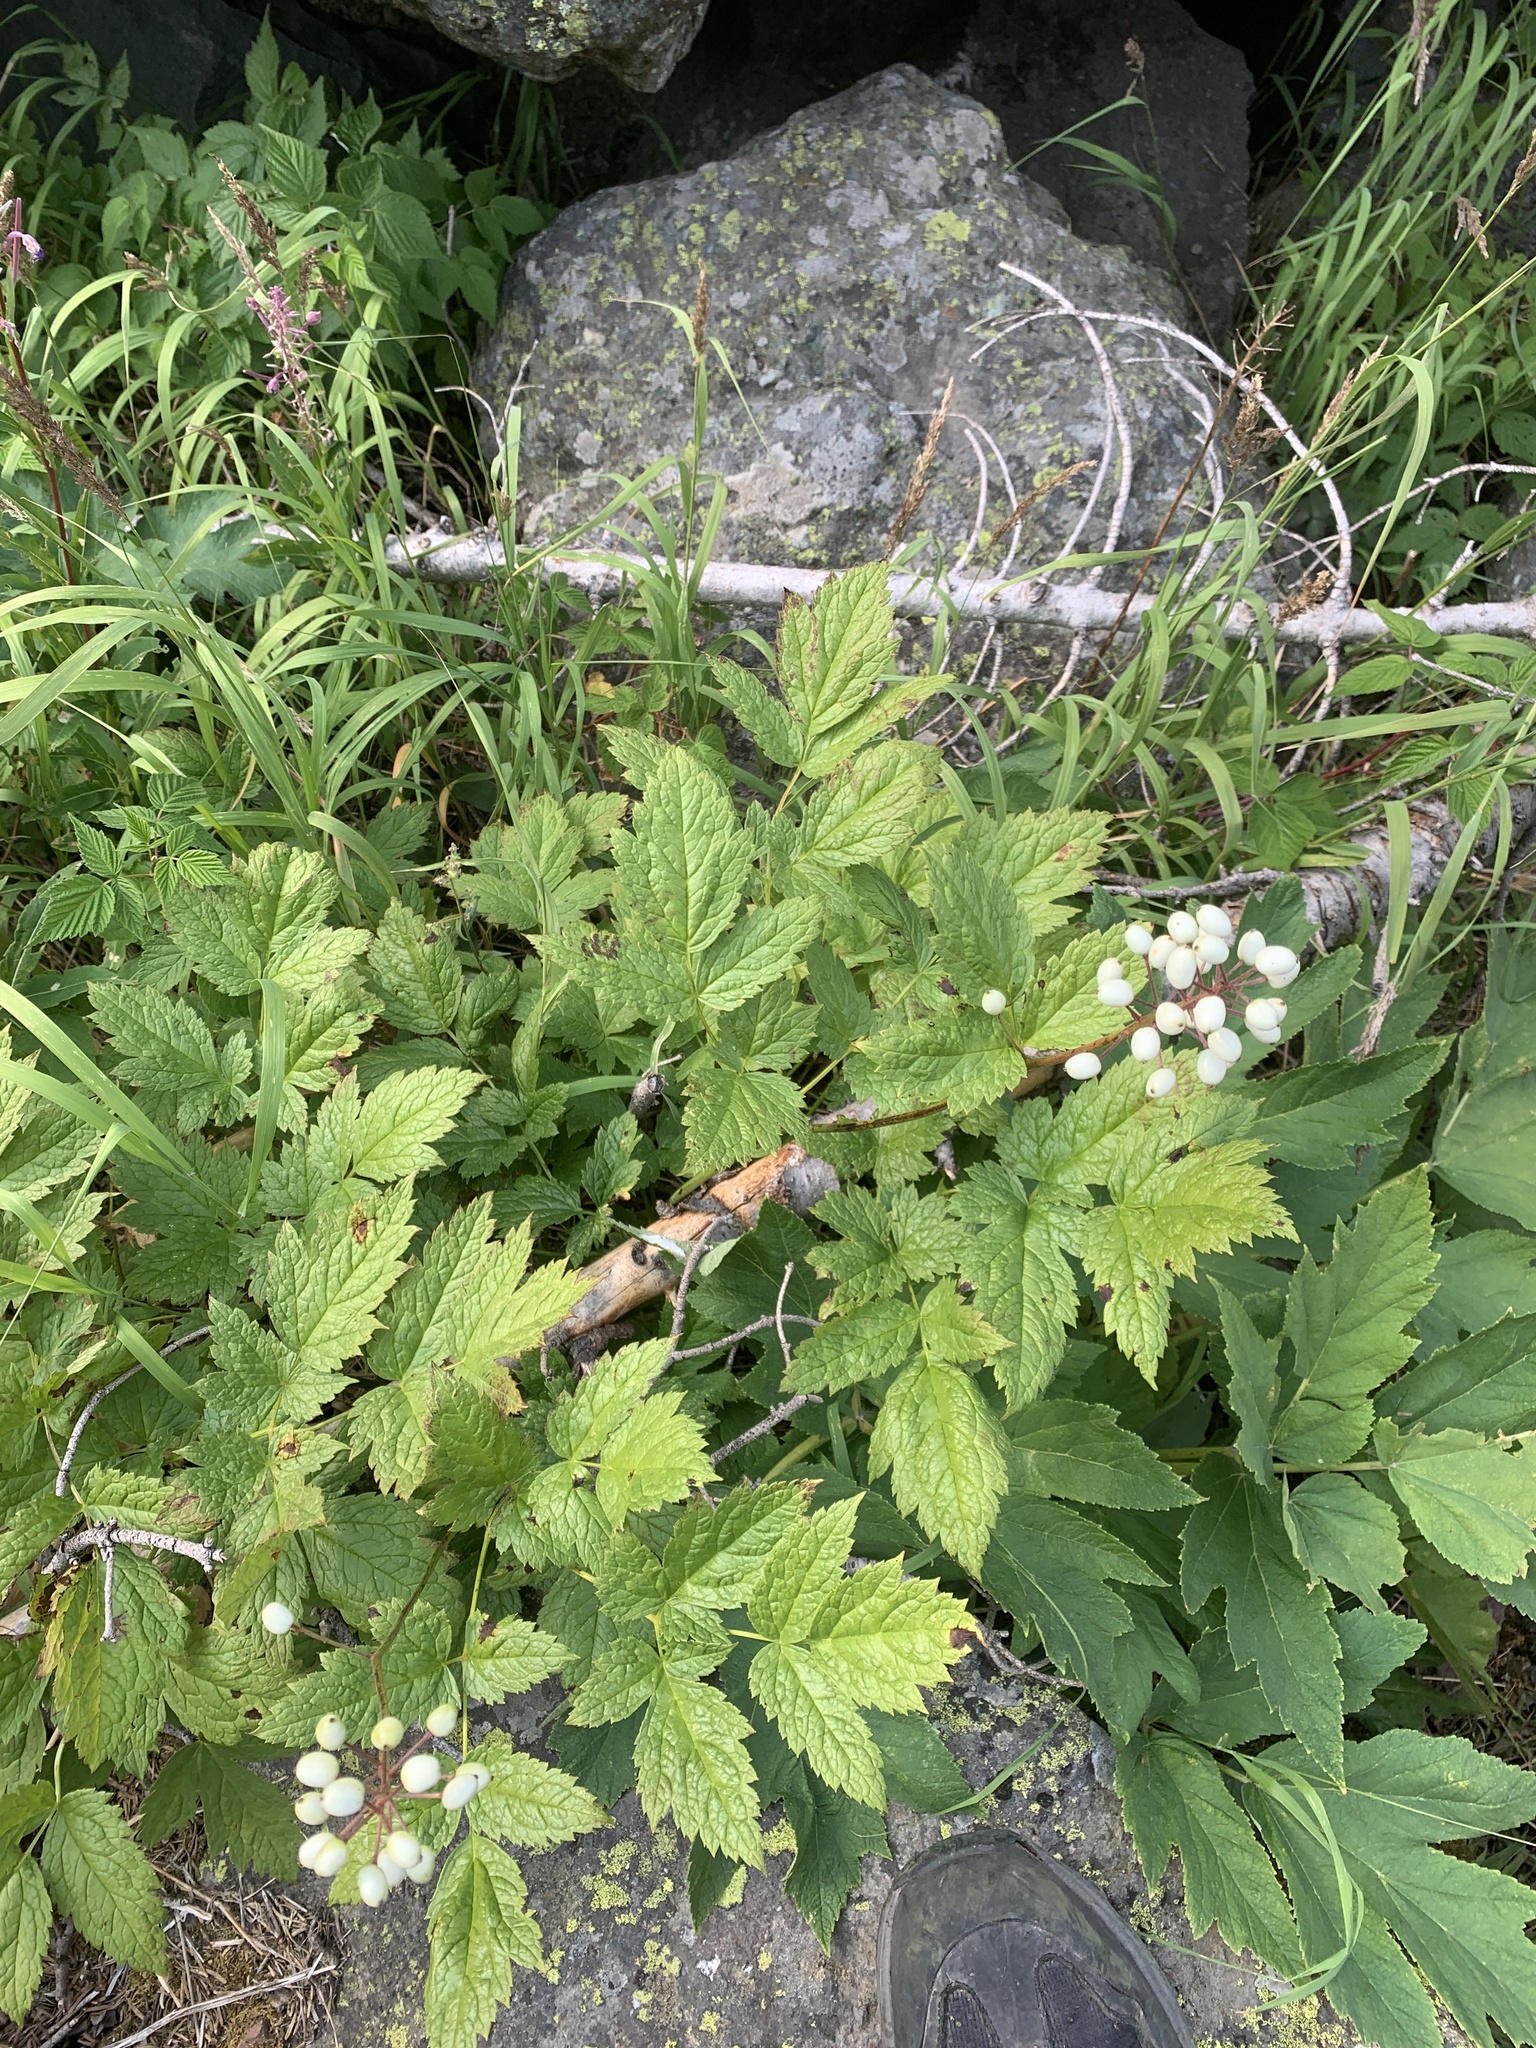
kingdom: Plantae
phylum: Tracheophyta
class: Magnoliopsida
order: Ranunculales
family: Ranunculaceae
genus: Actaea
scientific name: Actaea rubra
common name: Red baneberry
